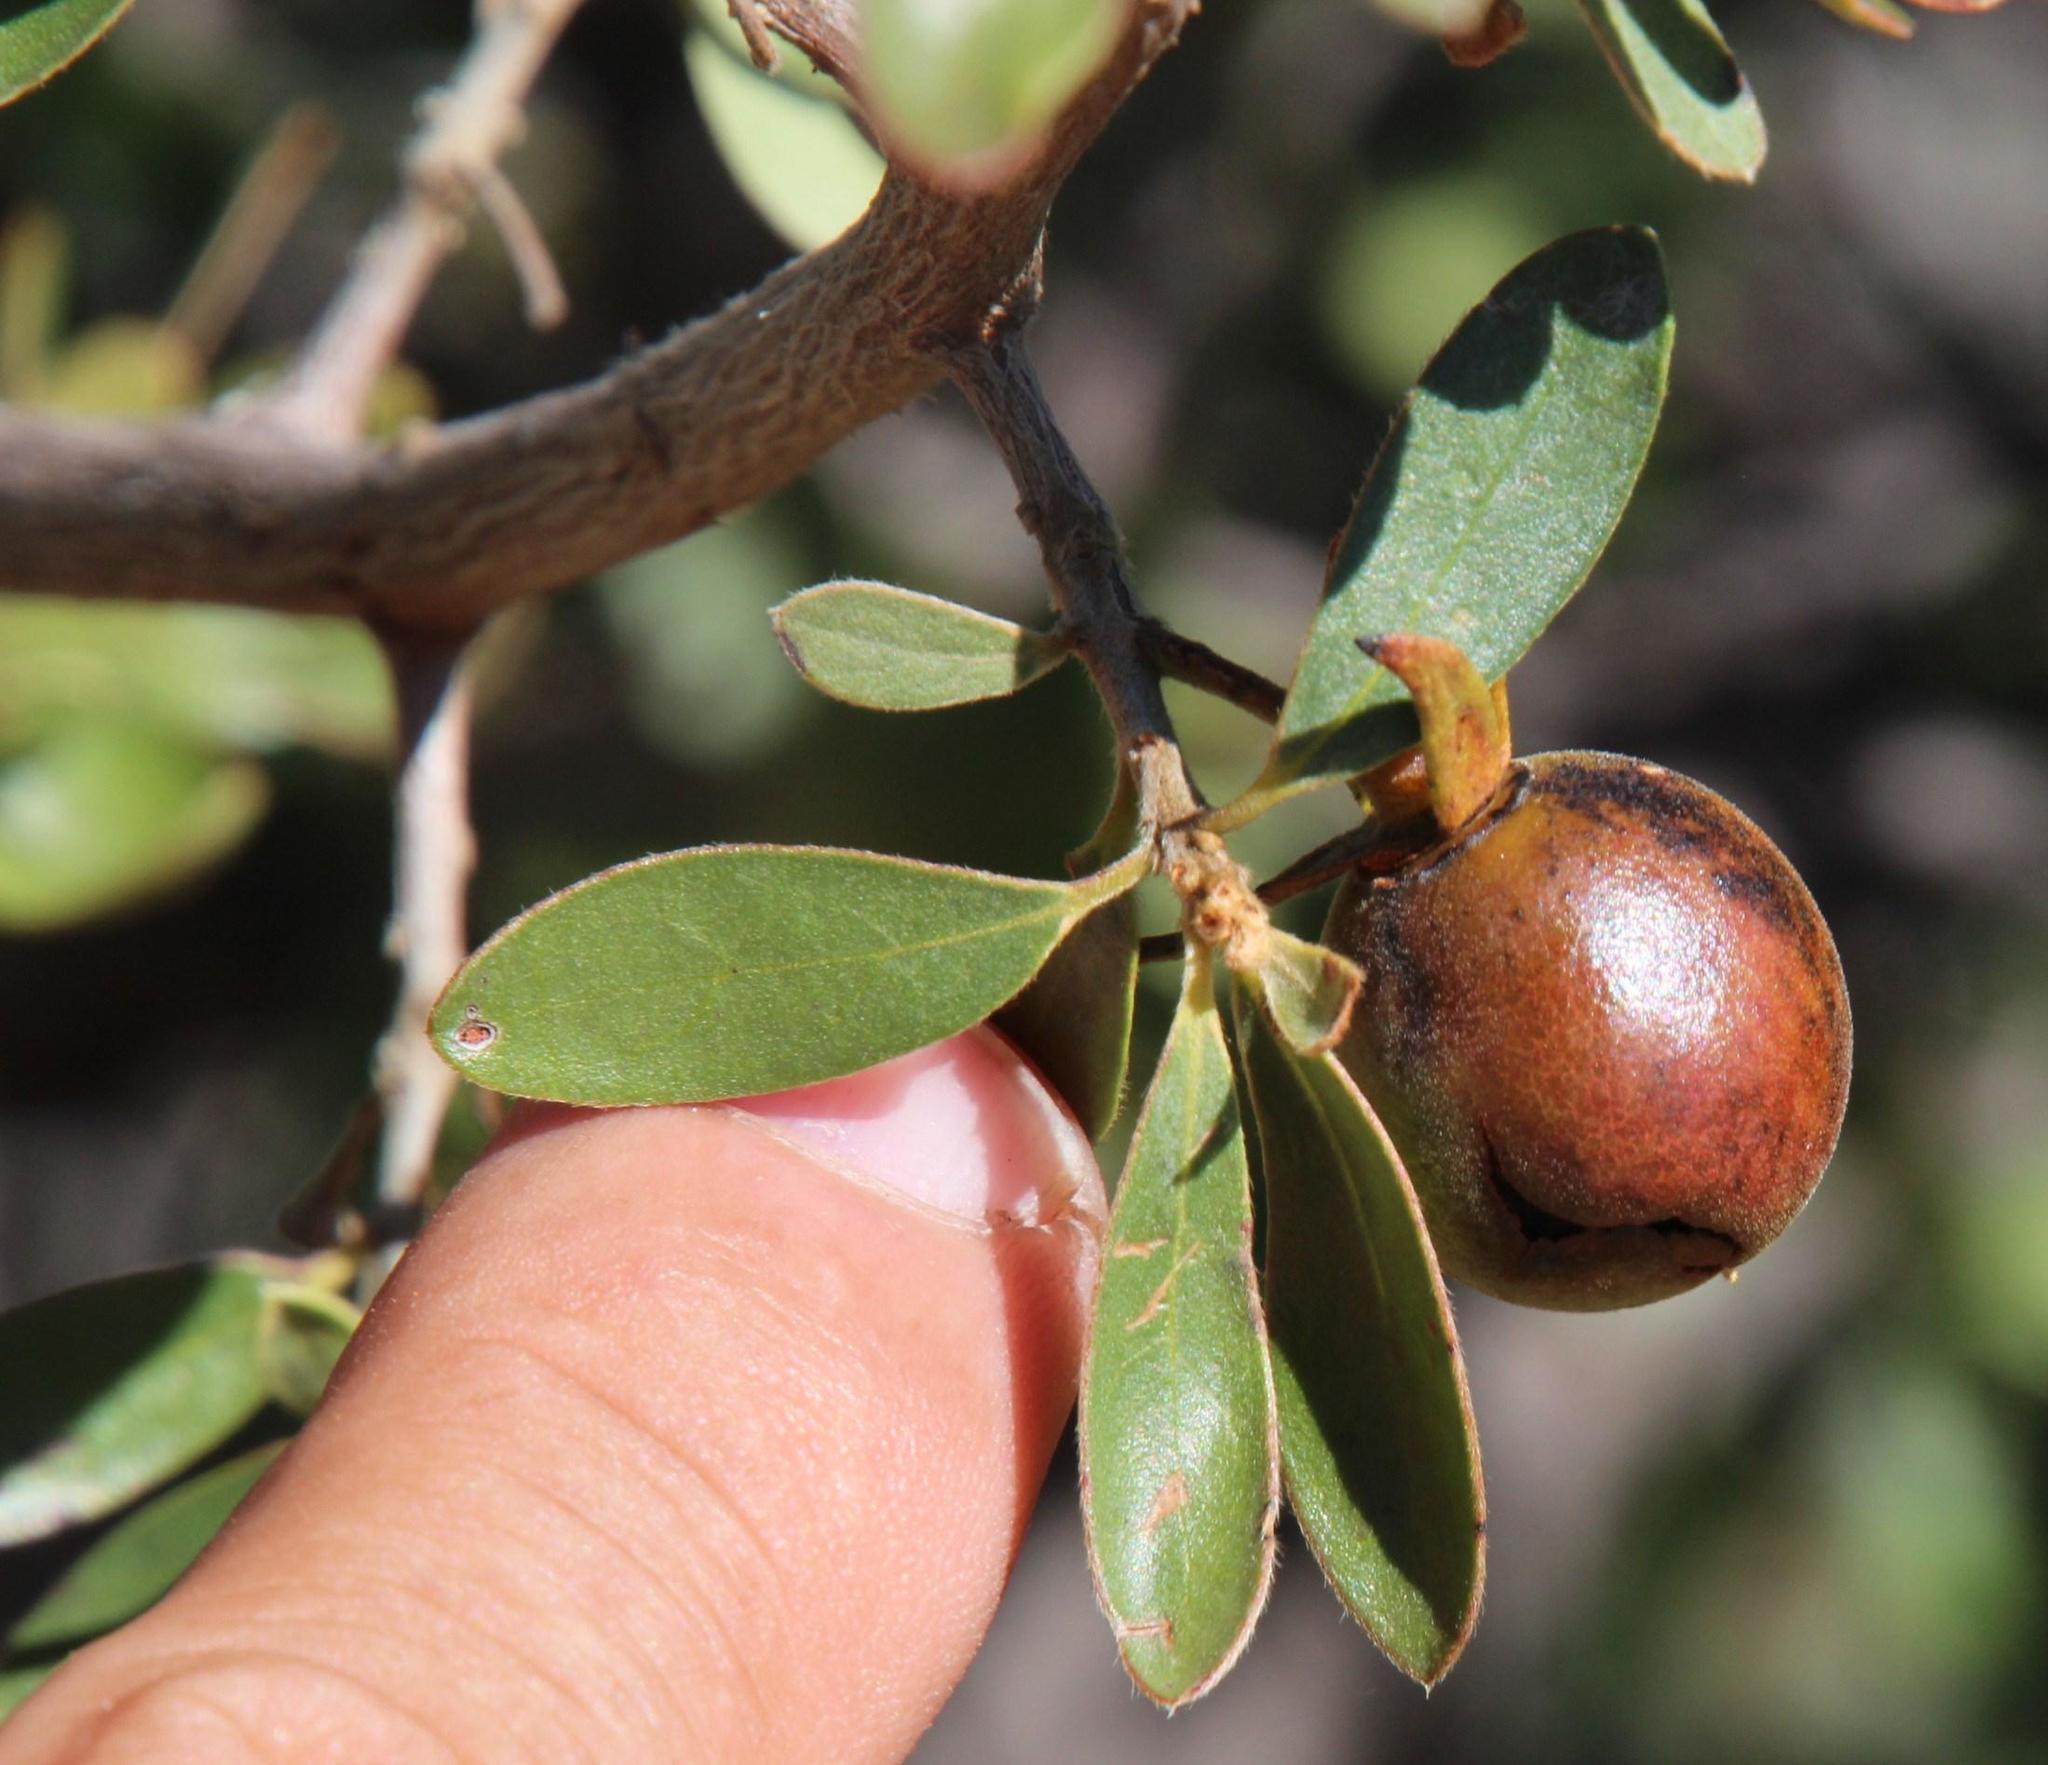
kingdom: Plantae
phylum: Tracheophyta
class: Magnoliopsida
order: Ericales
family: Ebenaceae
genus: Diospyros
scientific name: Diospyros lycioides
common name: Red star apple
